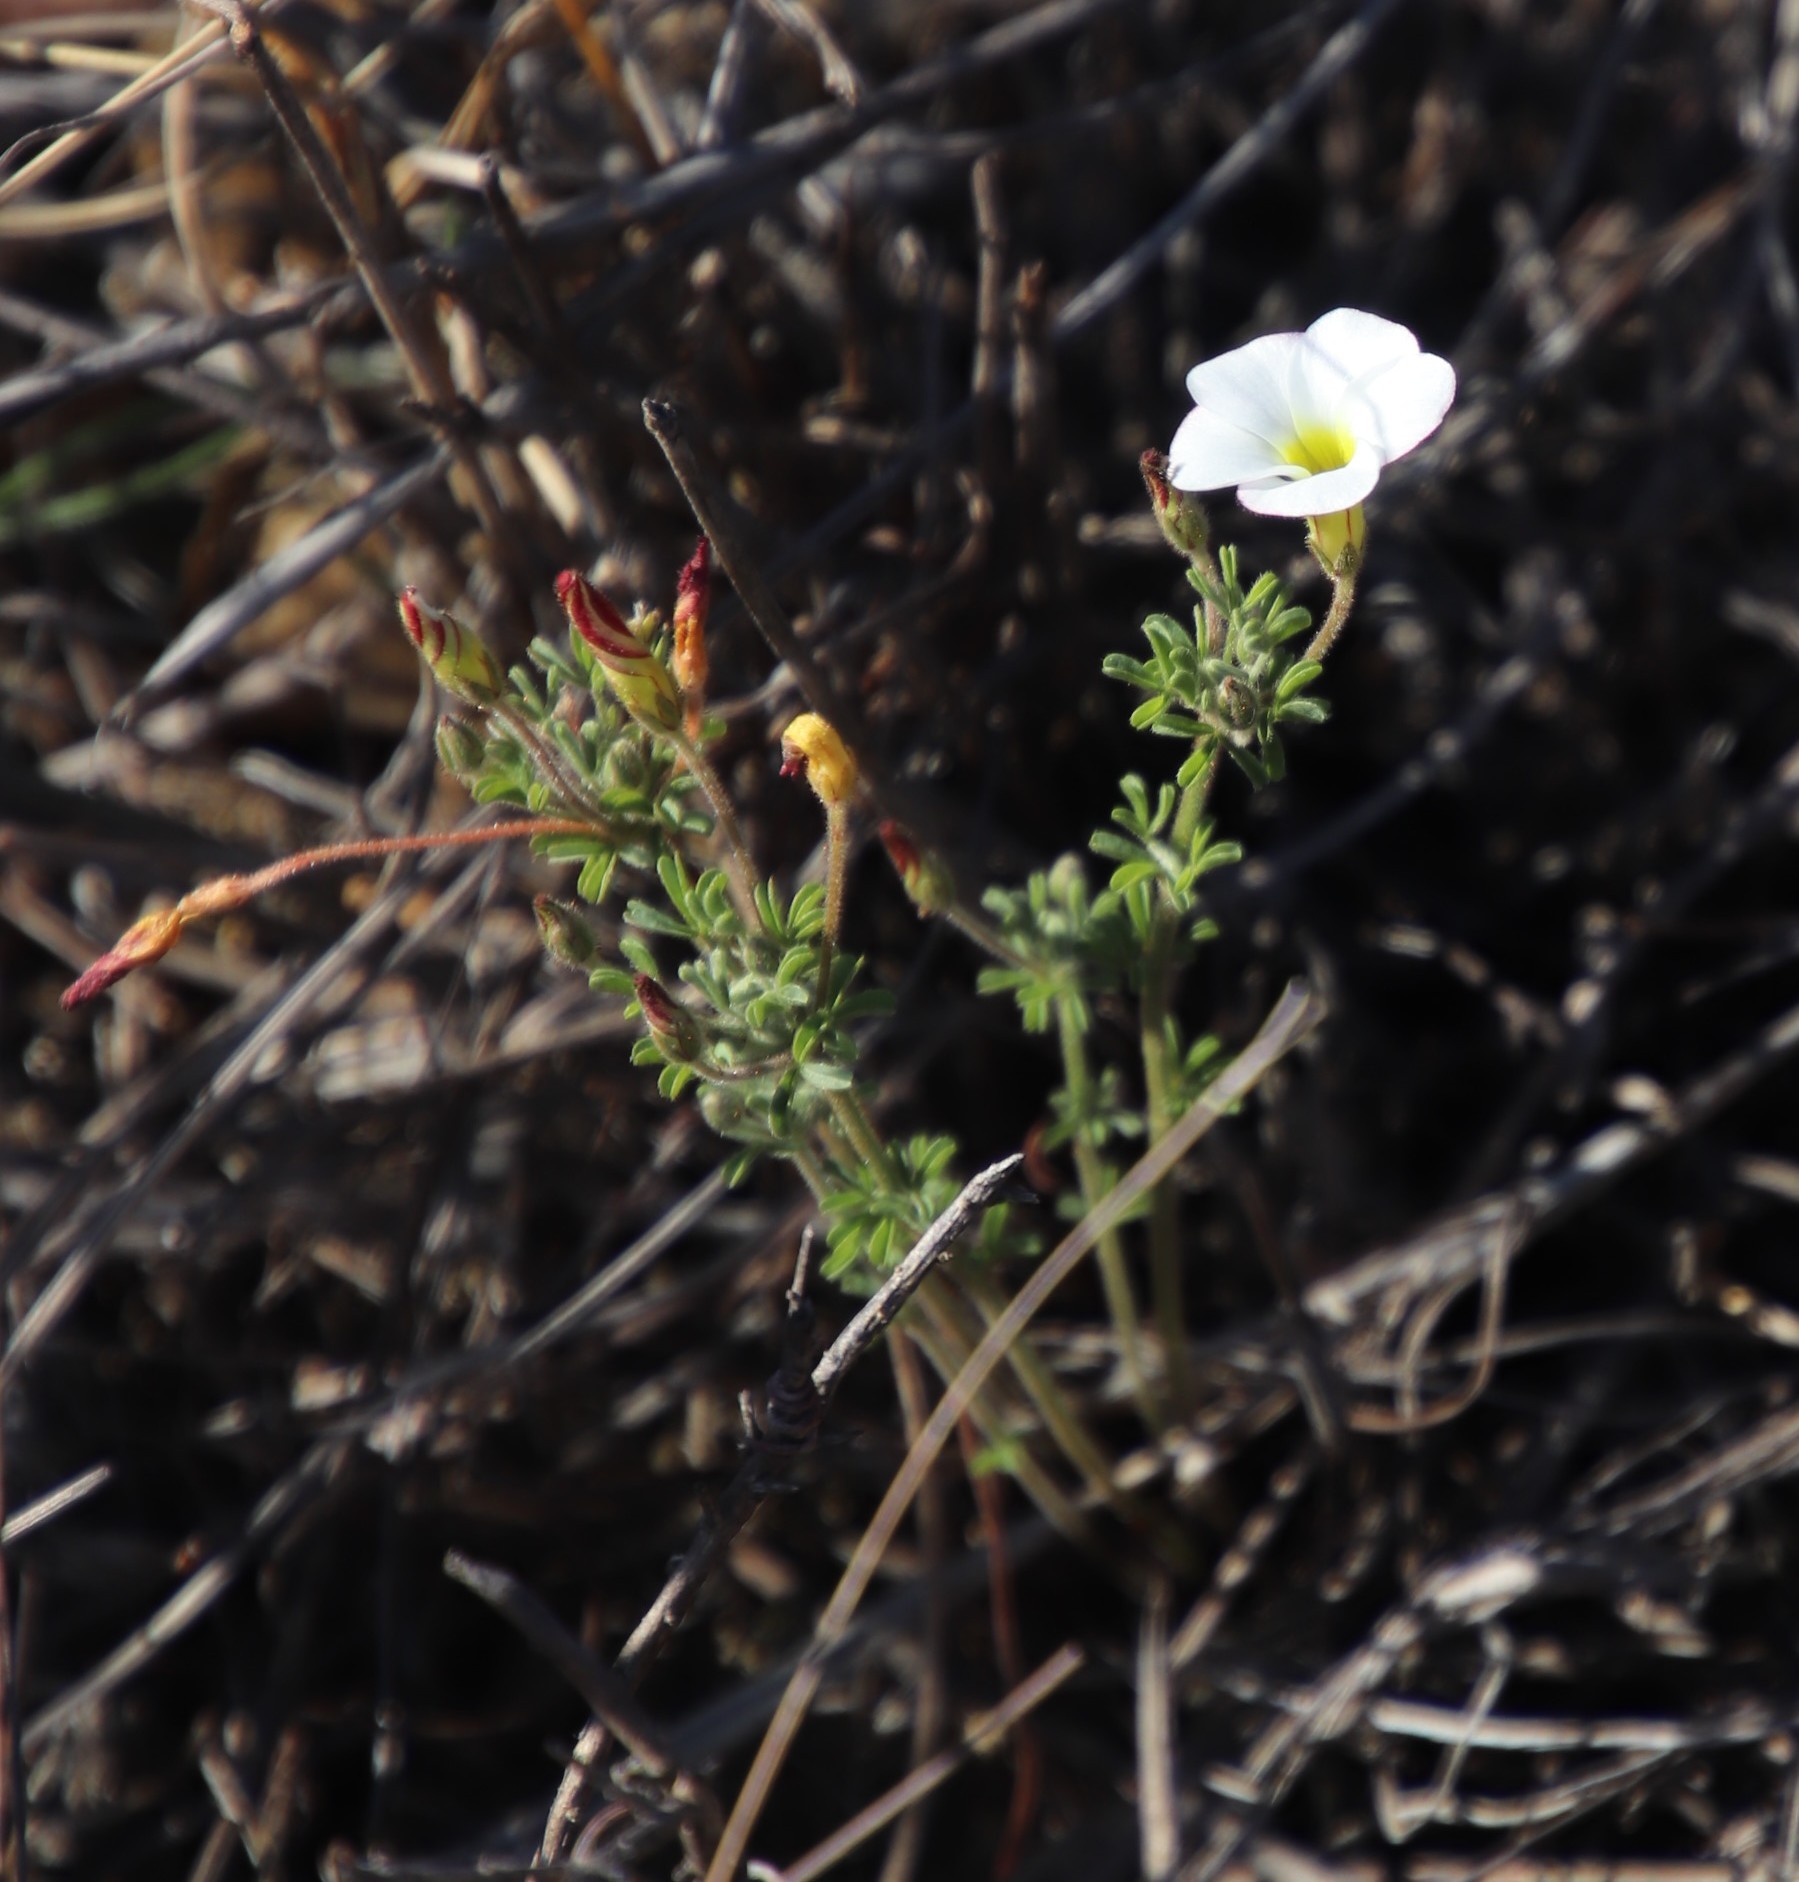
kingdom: Plantae
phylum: Tracheophyta
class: Magnoliopsida
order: Oxalidales
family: Oxalidaceae
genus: Oxalis
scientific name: Oxalis multicaulis
